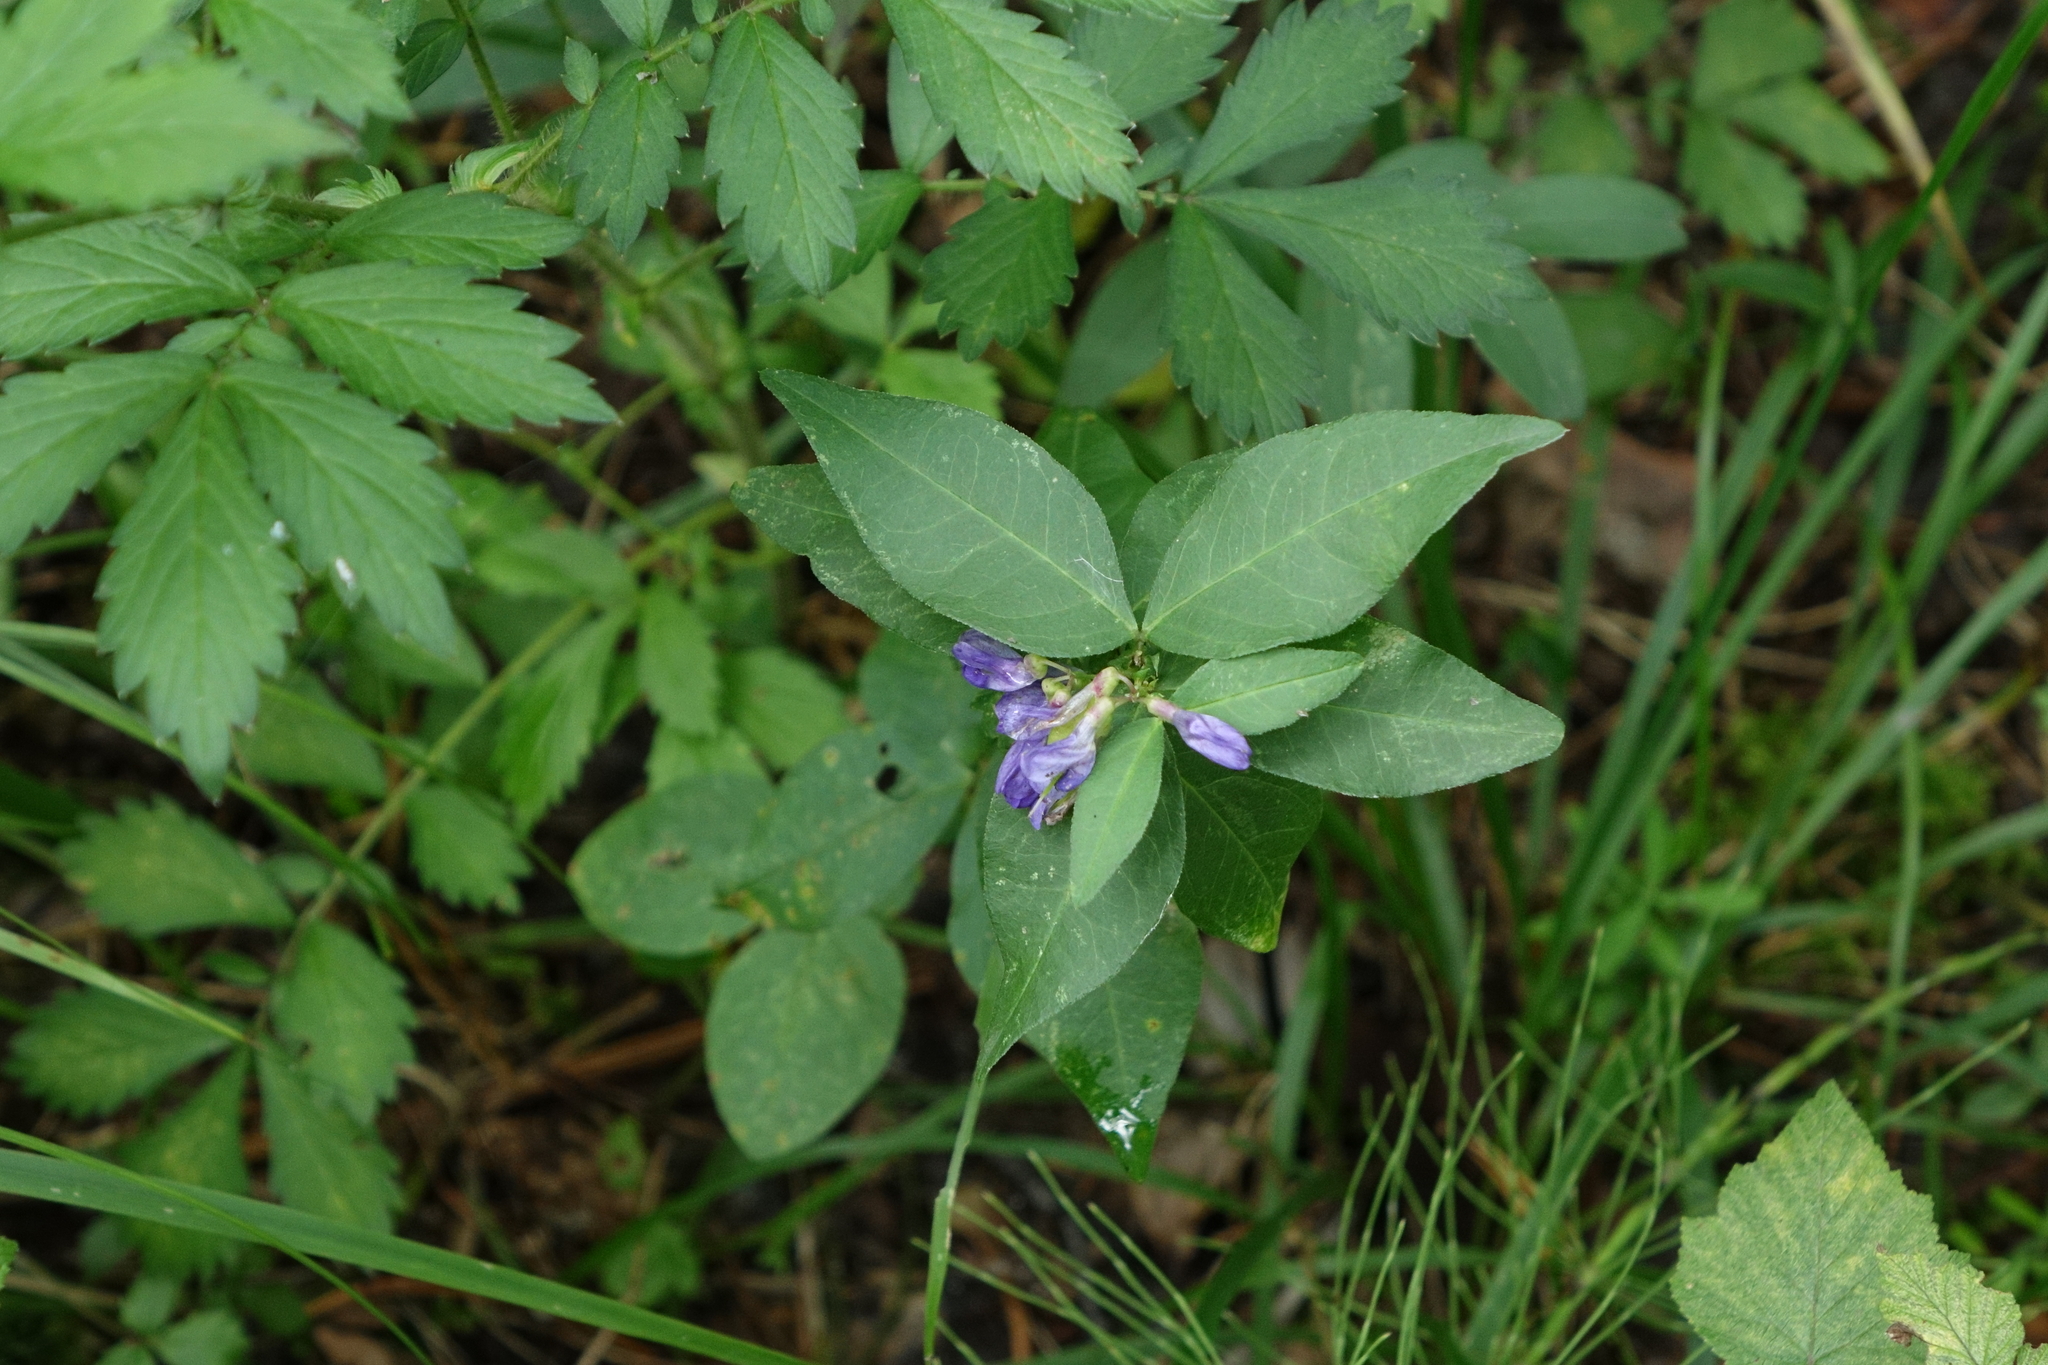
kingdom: Plantae
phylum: Tracheophyta
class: Magnoliopsida
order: Fabales
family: Fabaceae
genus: Vicia
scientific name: Vicia unijuga
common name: Two-leaf vetch
